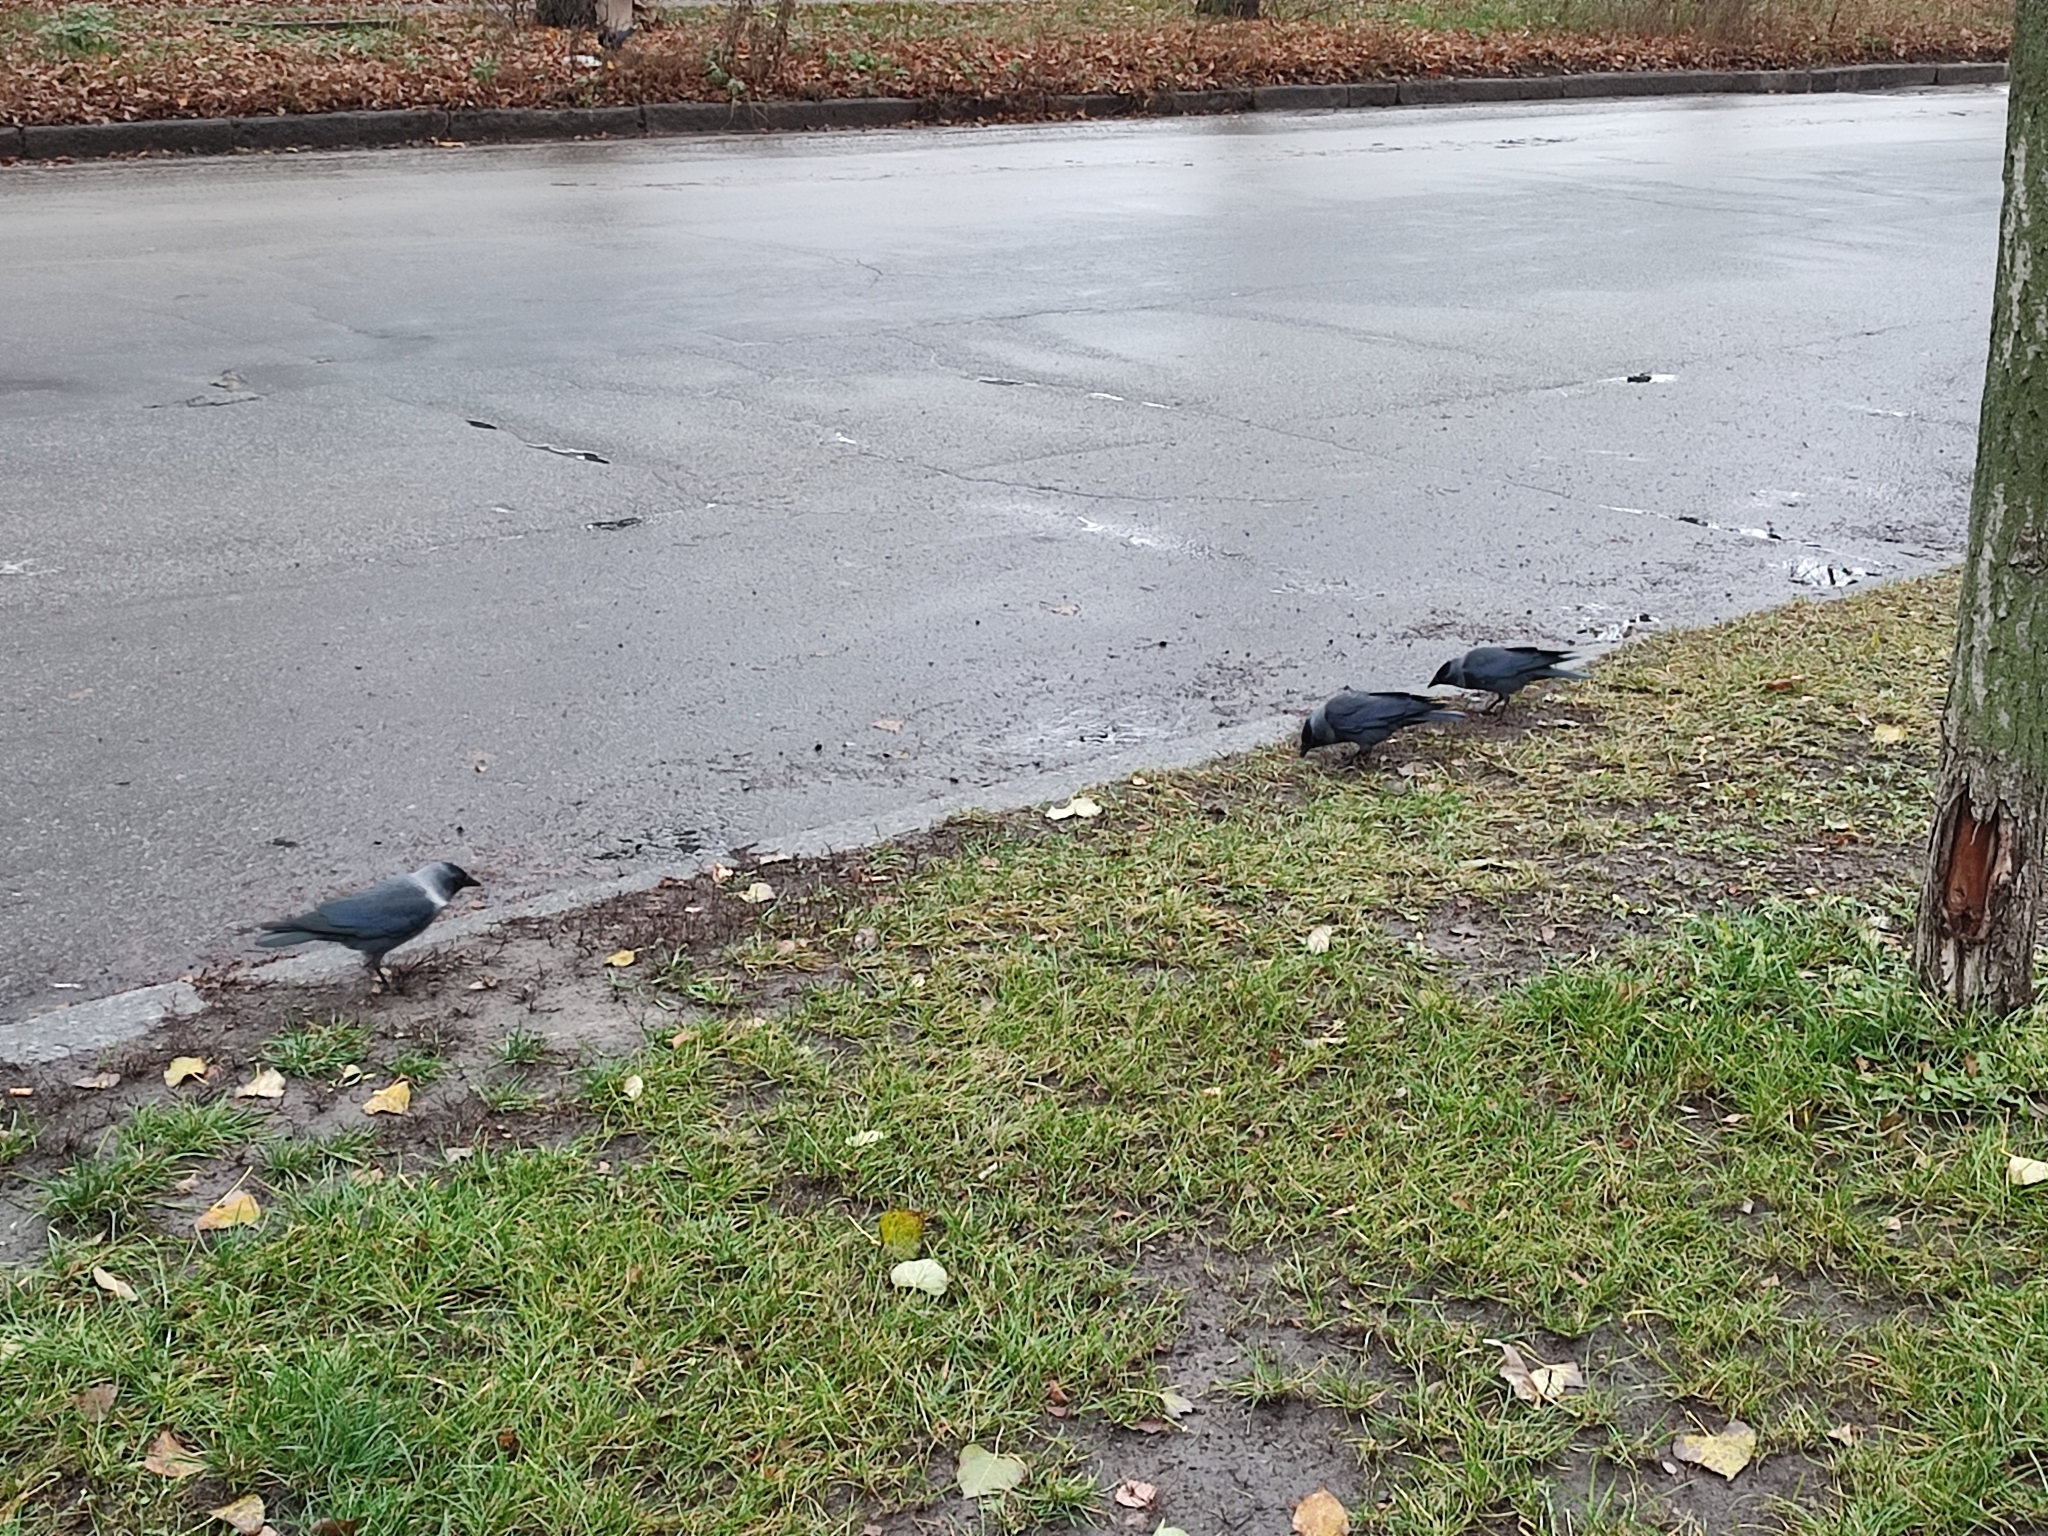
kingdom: Animalia
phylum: Chordata
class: Aves
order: Passeriformes
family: Corvidae
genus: Coloeus
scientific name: Coloeus monedula
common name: Western jackdaw
